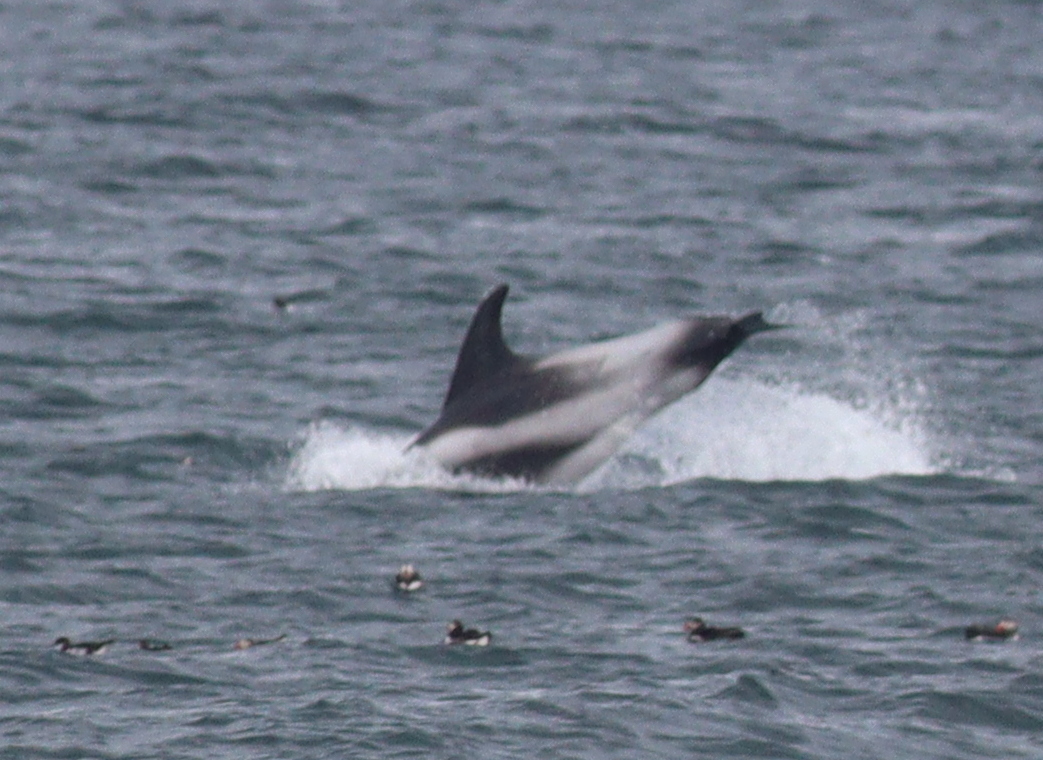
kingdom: Animalia
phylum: Chordata
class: Mammalia
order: Cetacea
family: Delphinidae
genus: Lagenorhynchus
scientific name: Lagenorhynchus albirostris
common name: White-beaked dolphin
